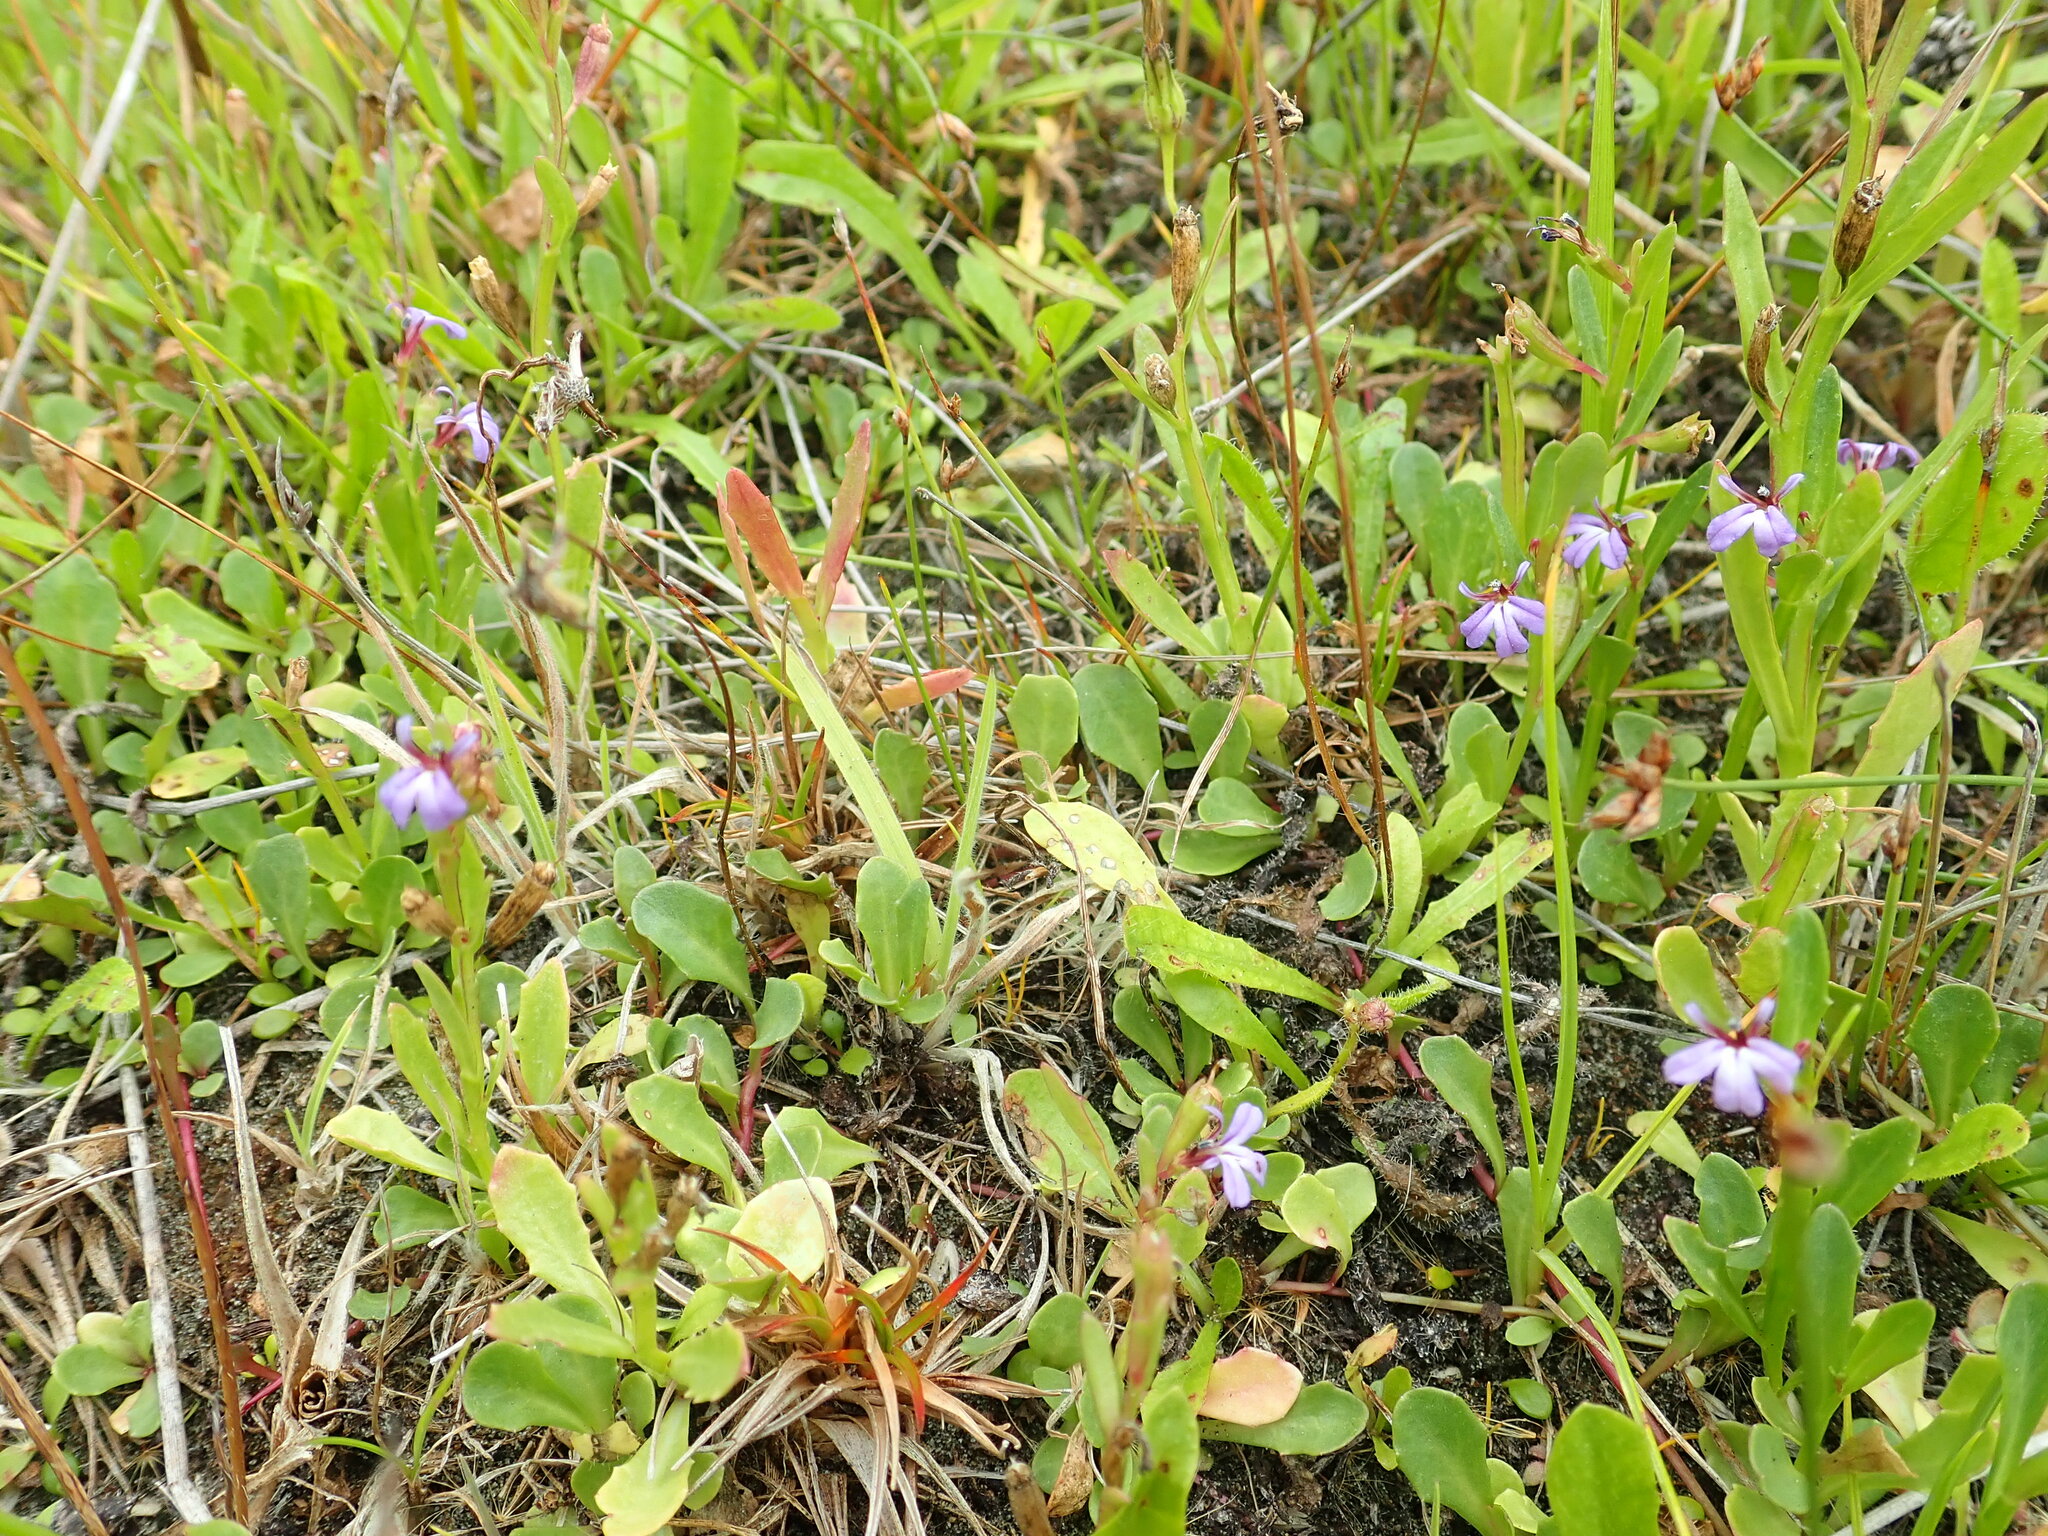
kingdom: Plantae
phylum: Tracheophyta
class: Magnoliopsida
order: Asterales
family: Campanulaceae
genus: Lobelia
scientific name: Lobelia anceps
